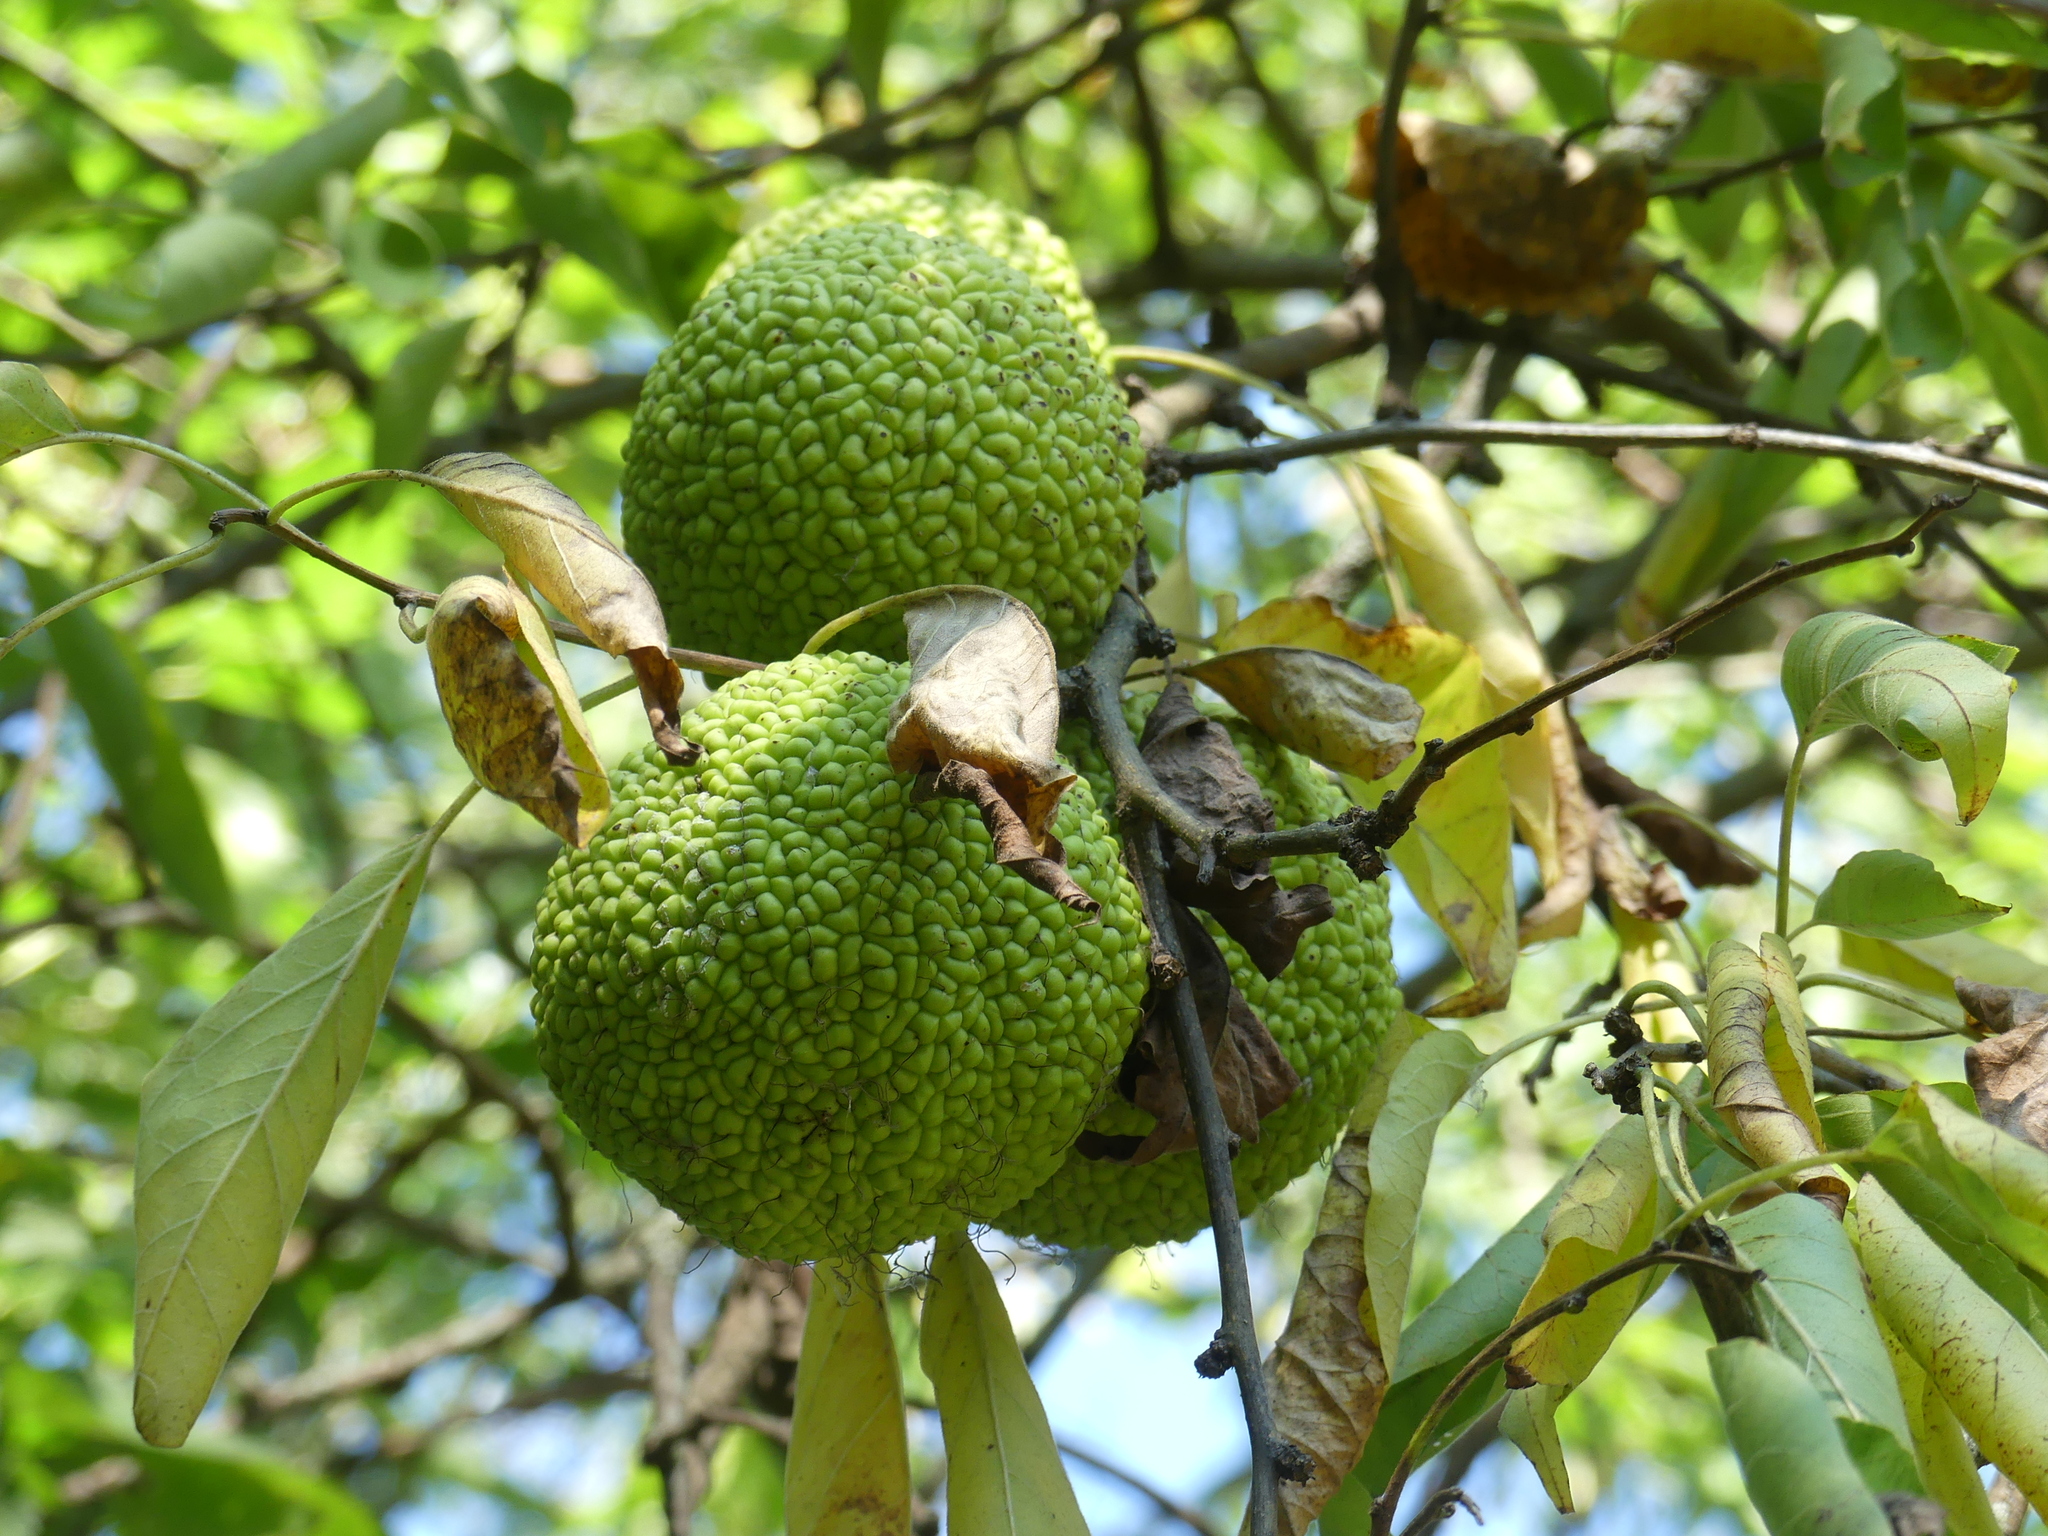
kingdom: Plantae
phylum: Tracheophyta
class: Magnoliopsida
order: Rosales
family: Moraceae
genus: Maclura
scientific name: Maclura pomifera
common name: Osage-orange
